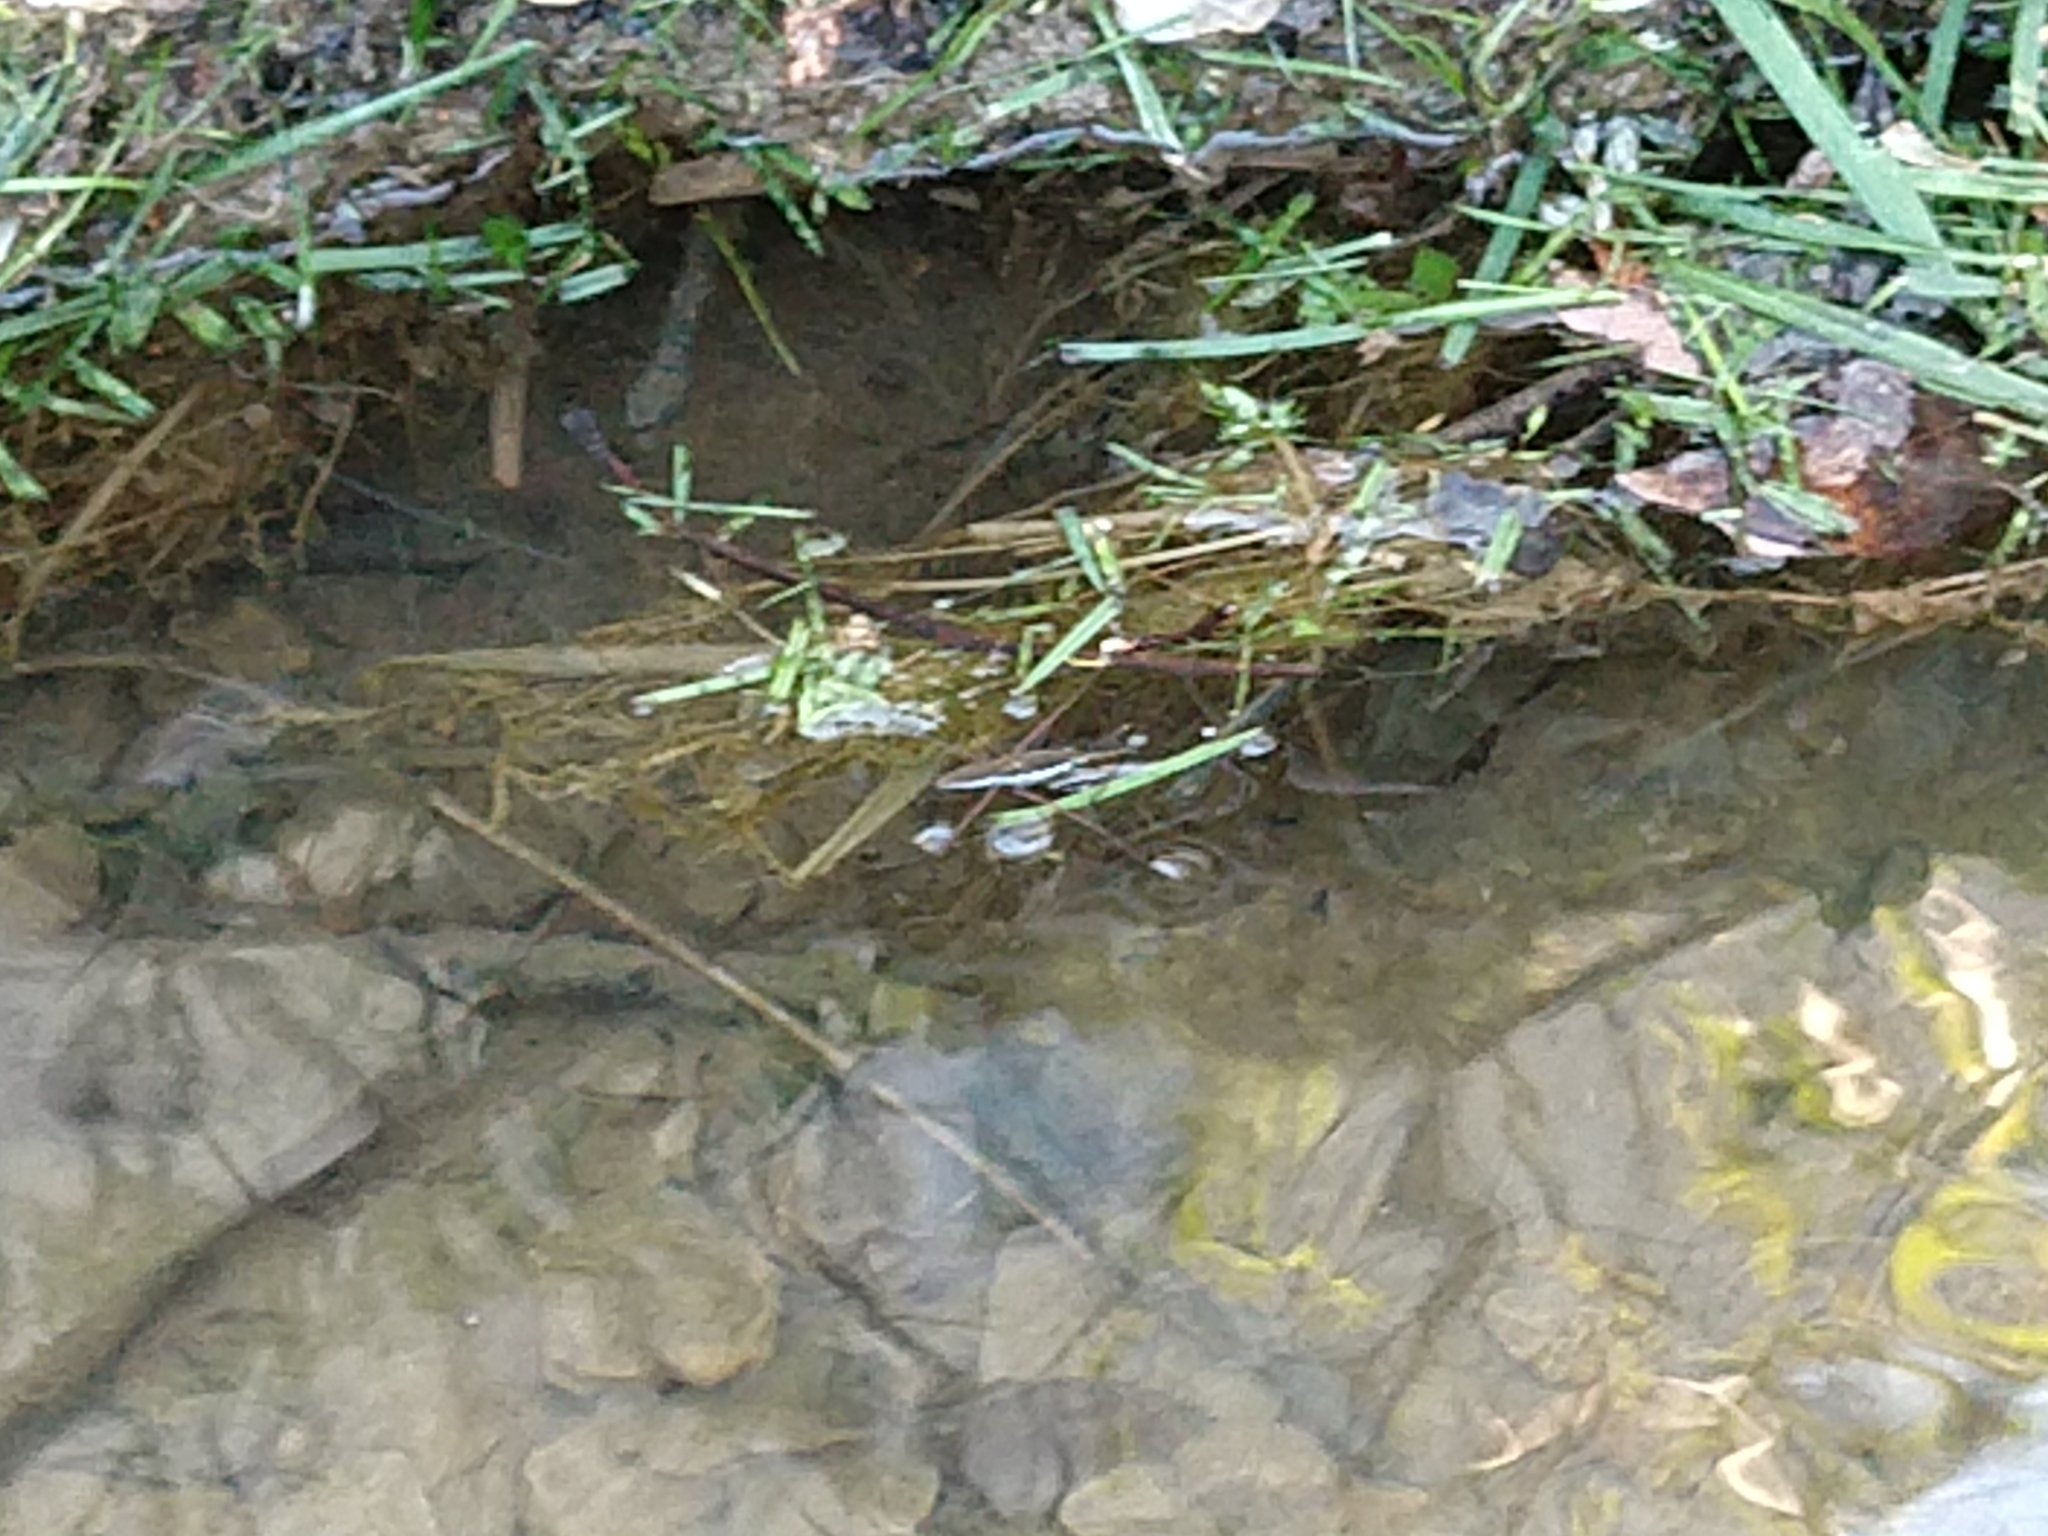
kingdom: Animalia
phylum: Arthropoda
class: Insecta
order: Hemiptera
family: Gerridae
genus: Aquarius
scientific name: Aquarius
